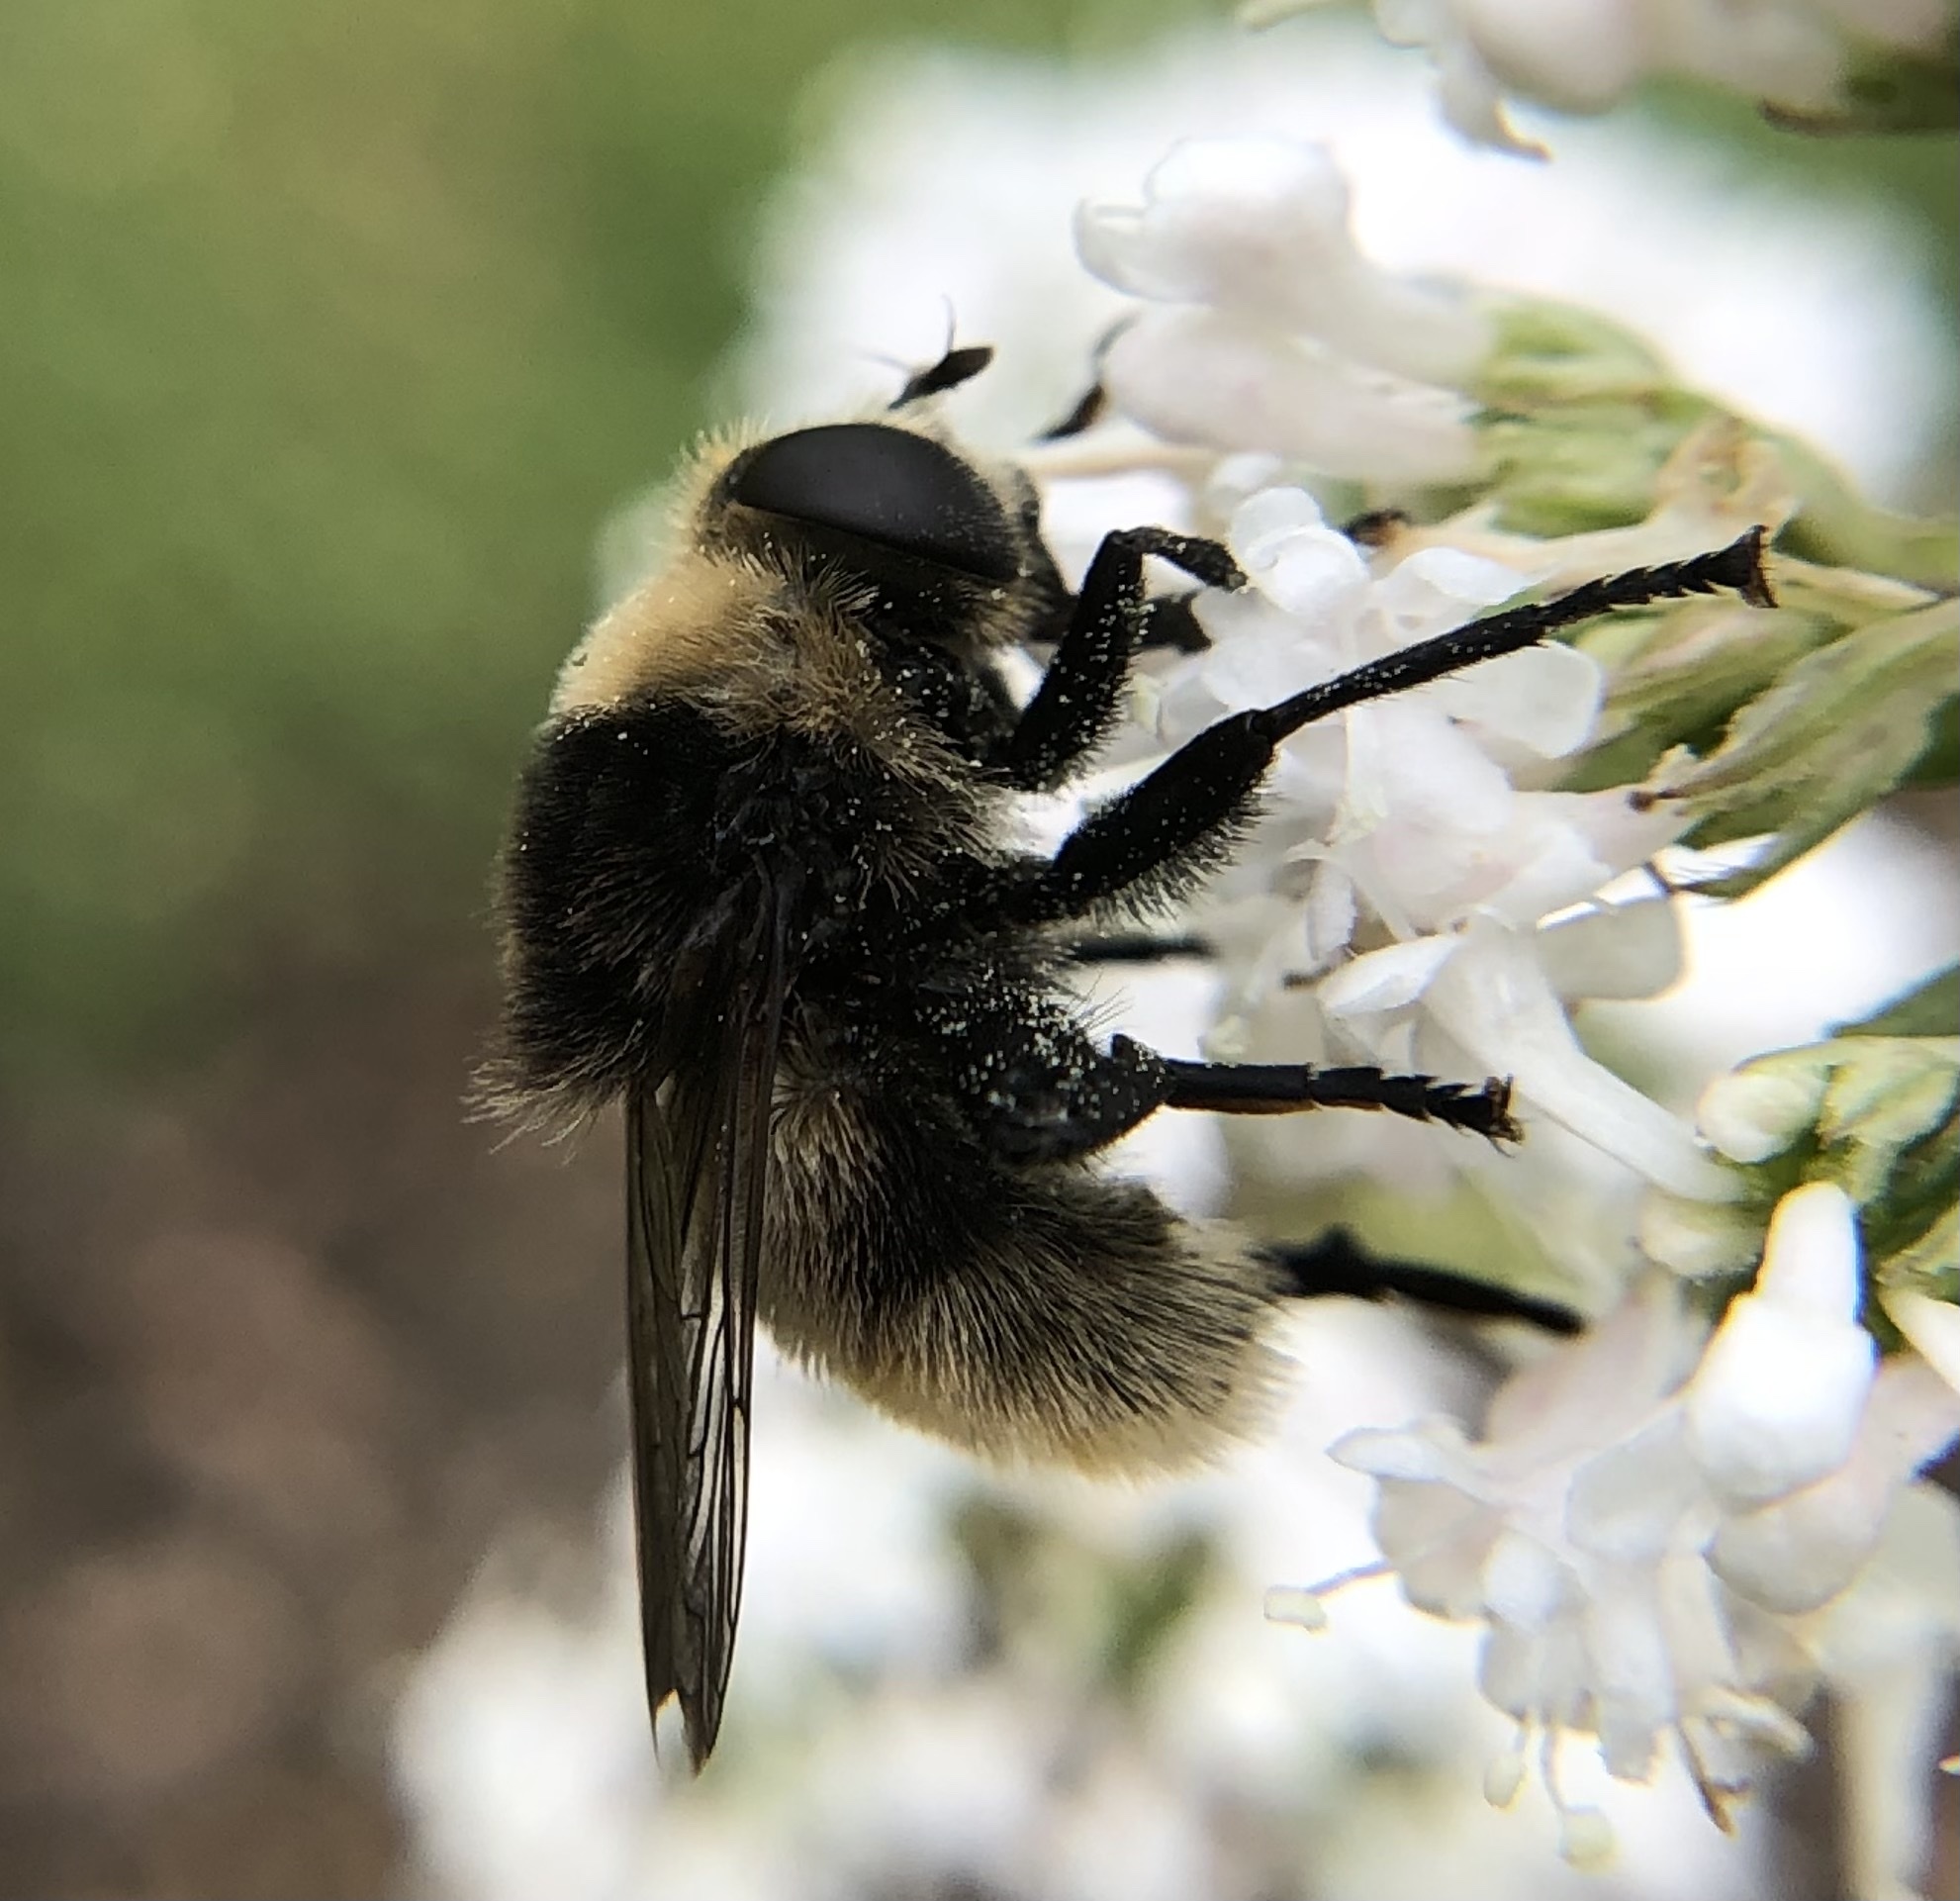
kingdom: Animalia
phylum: Arthropoda
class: Insecta
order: Diptera
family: Syrphidae
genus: Merodon
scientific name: Merodon equestris
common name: Greater bulb-fly
